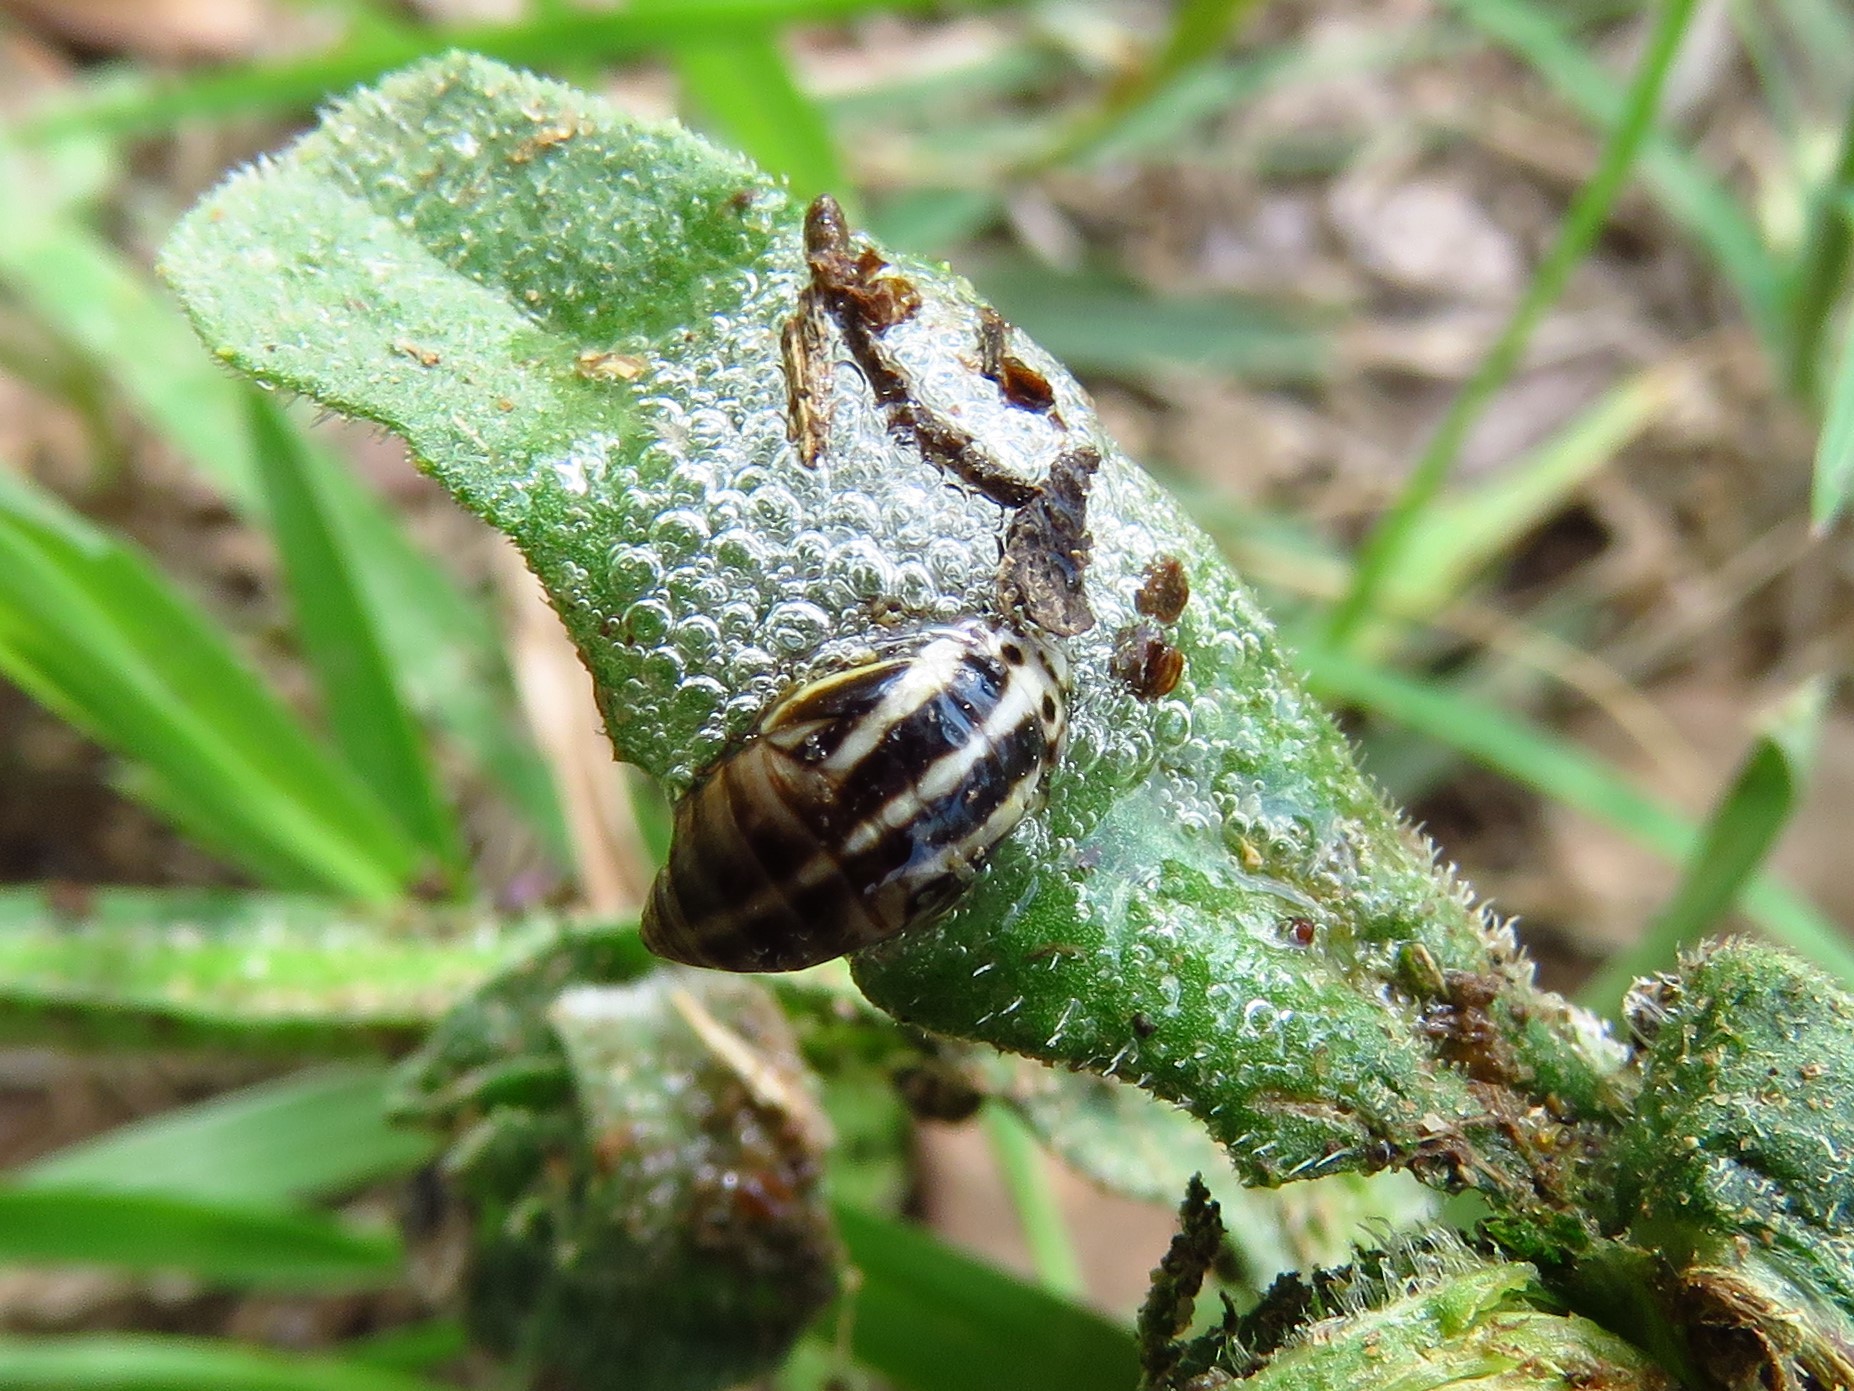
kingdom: Animalia
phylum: Arthropoda
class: Insecta
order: Hemiptera
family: Aphrophoridae
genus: Lepyronia
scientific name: Lepyronia gibbosa
